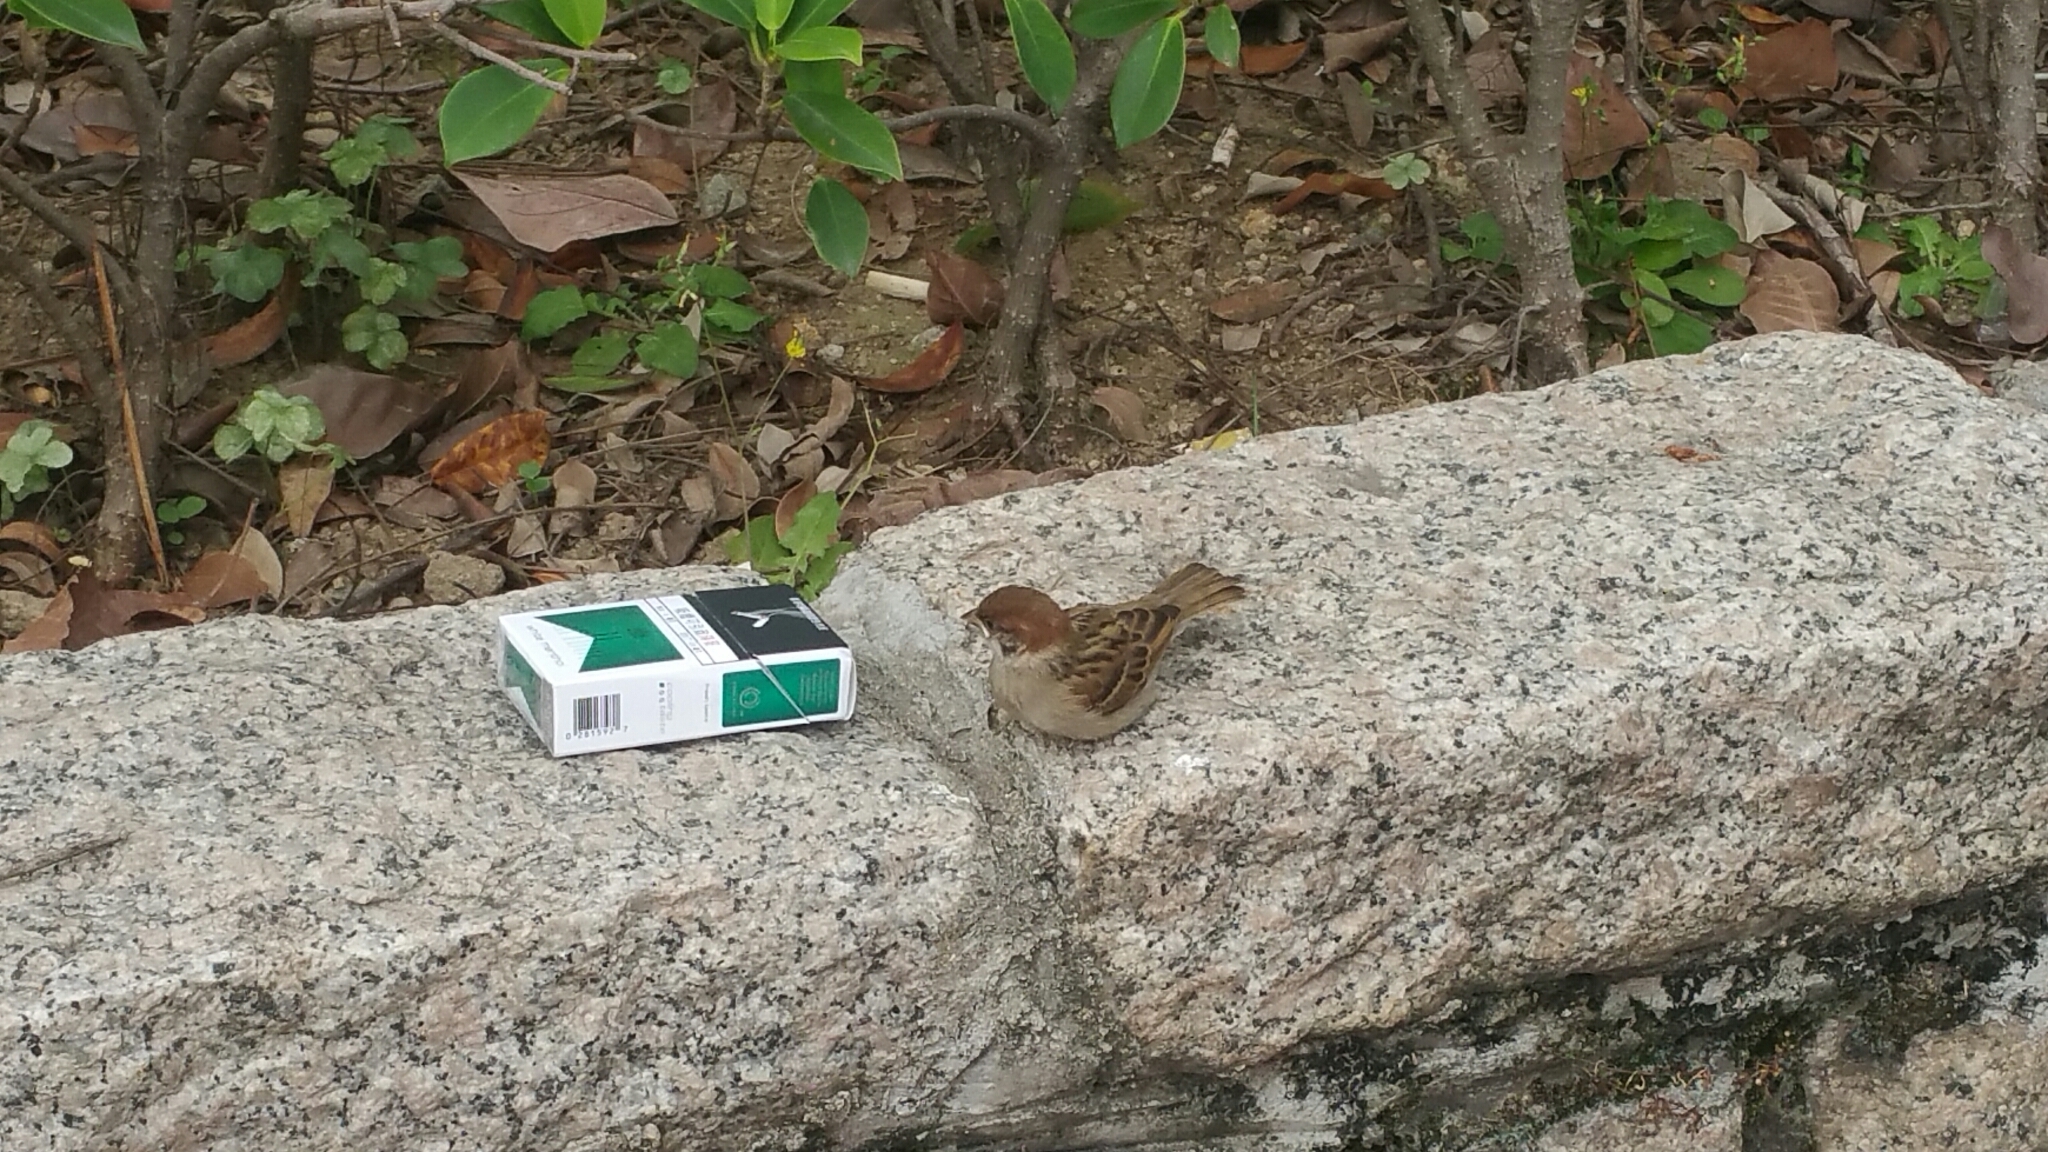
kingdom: Animalia
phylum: Chordata
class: Aves
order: Passeriformes
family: Passeridae
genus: Passer
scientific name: Passer montanus
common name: Eurasian tree sparrow
